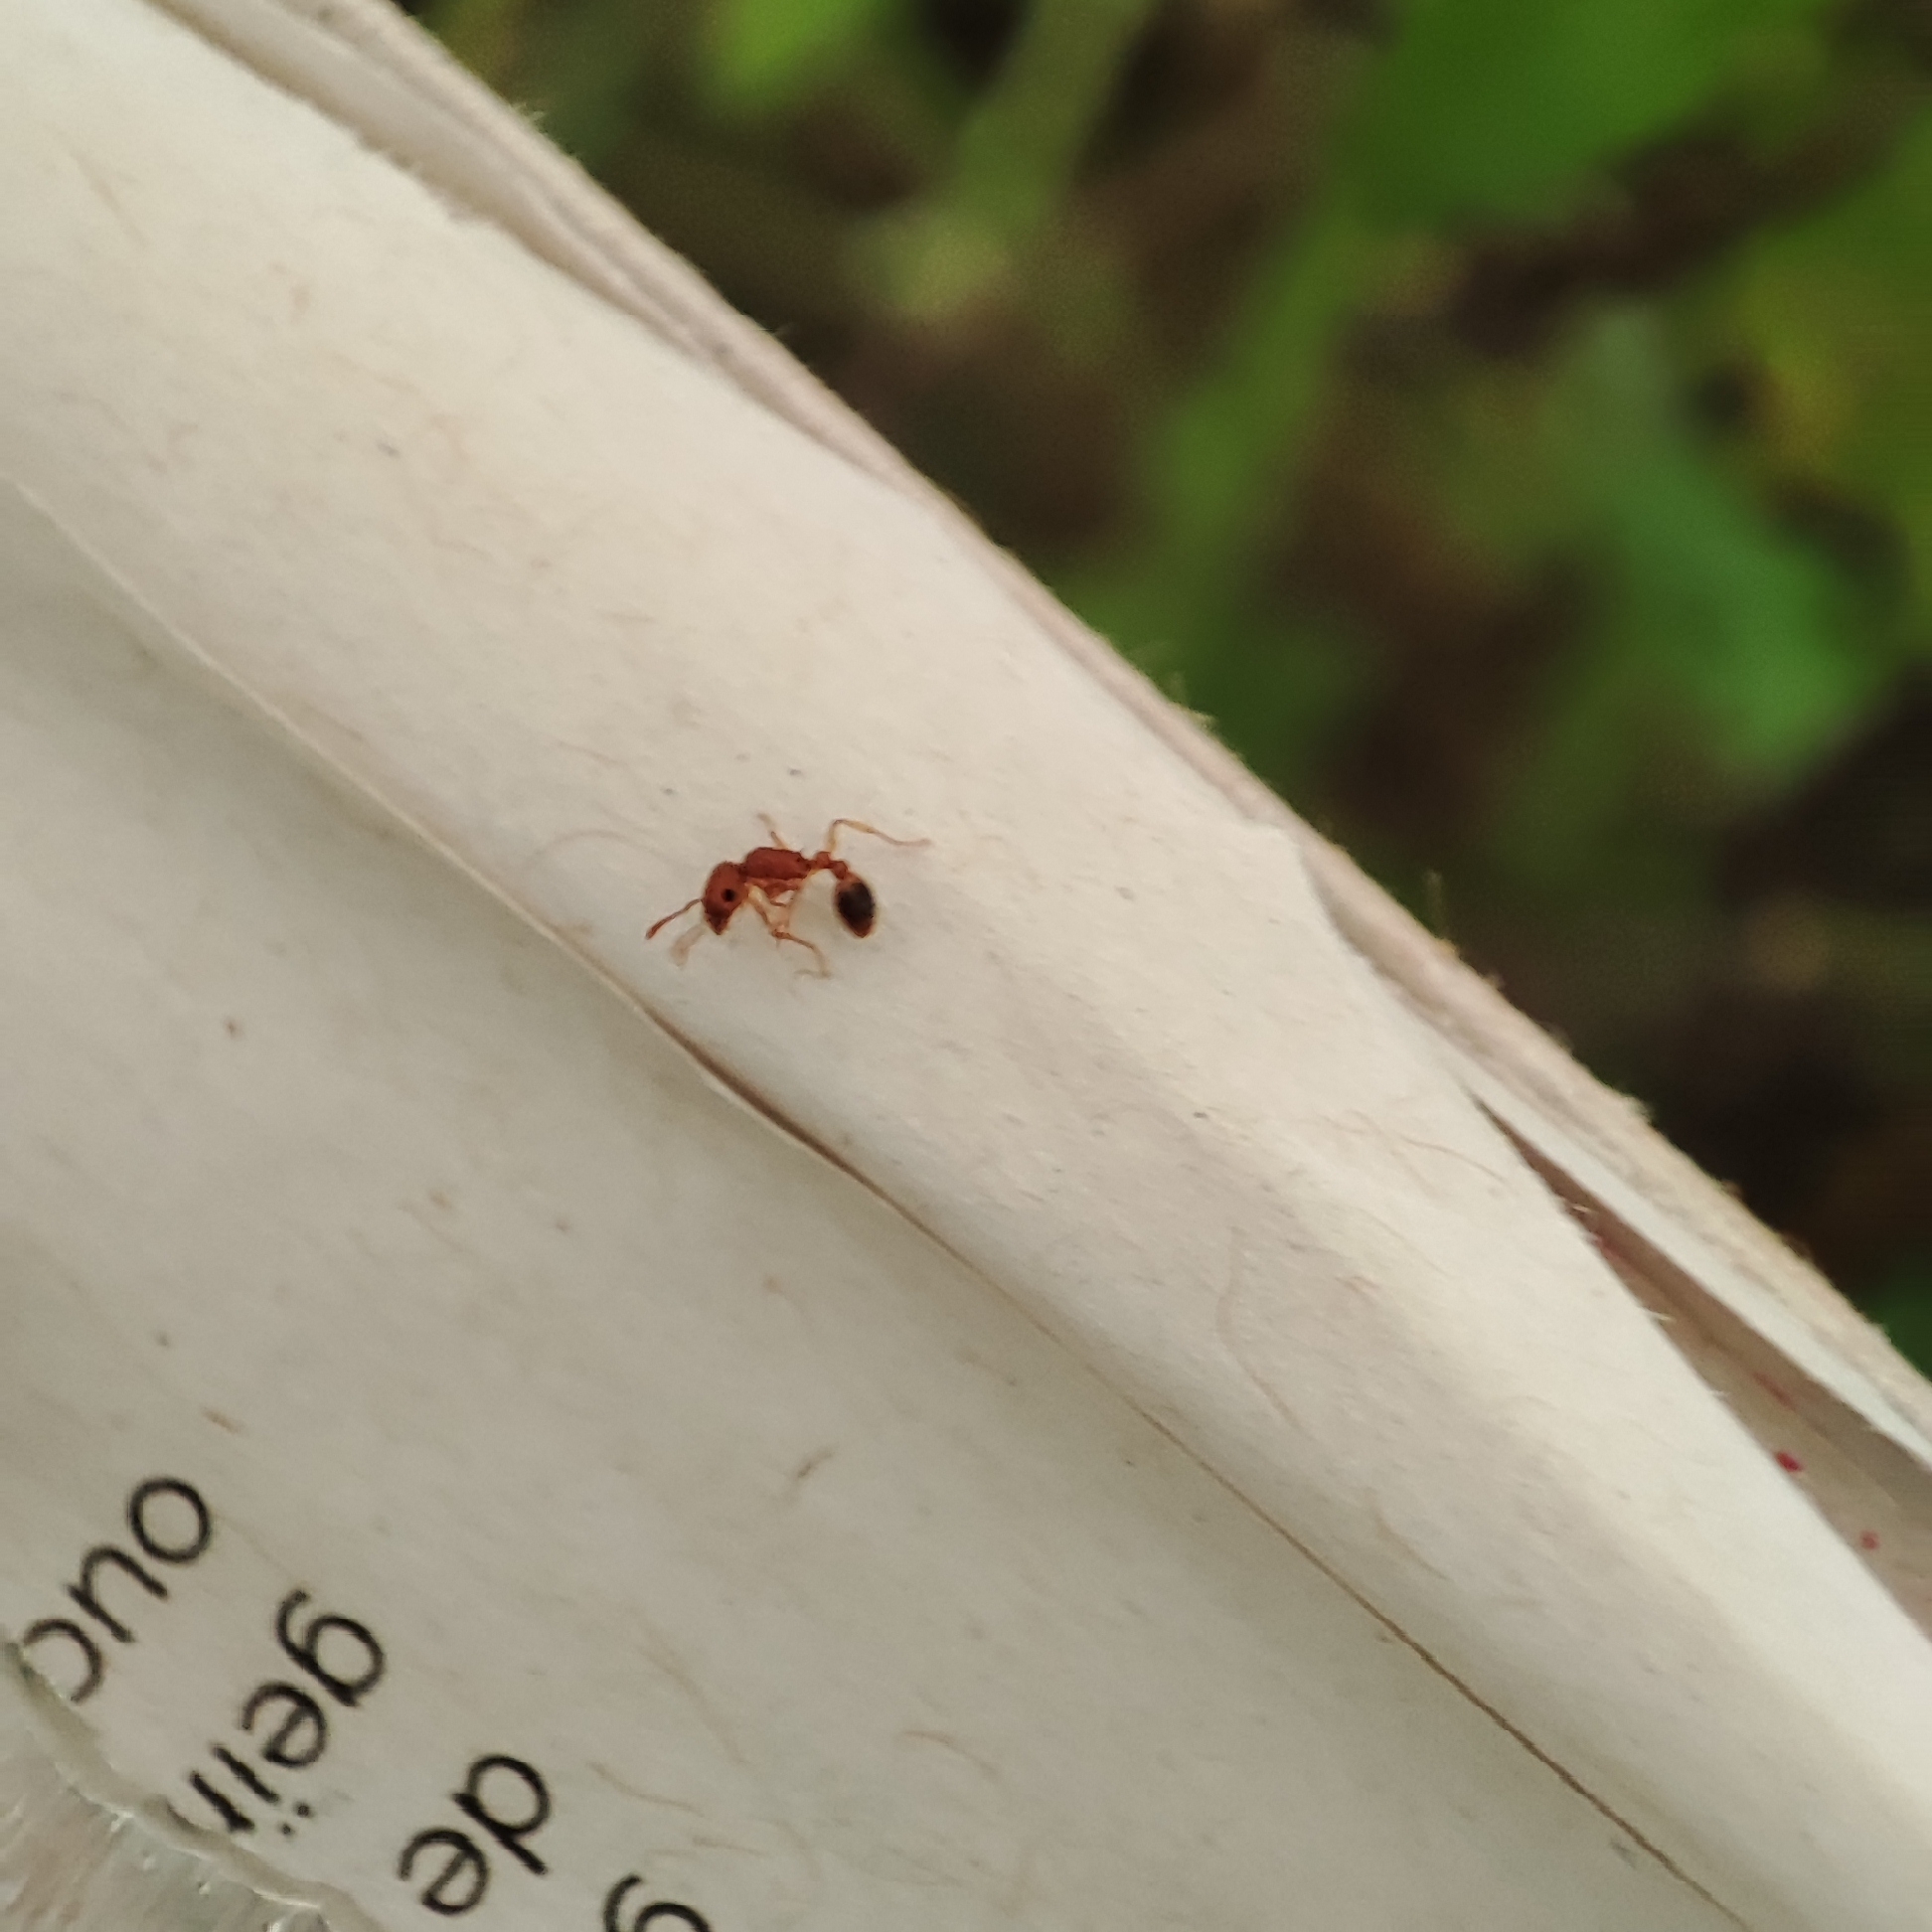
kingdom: Animalia
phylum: Arthropoda
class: Insecta
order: Hymenoptera
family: Formicidae
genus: Tetramorium
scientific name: Tetramorium bicarinatum
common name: Guinea ant
